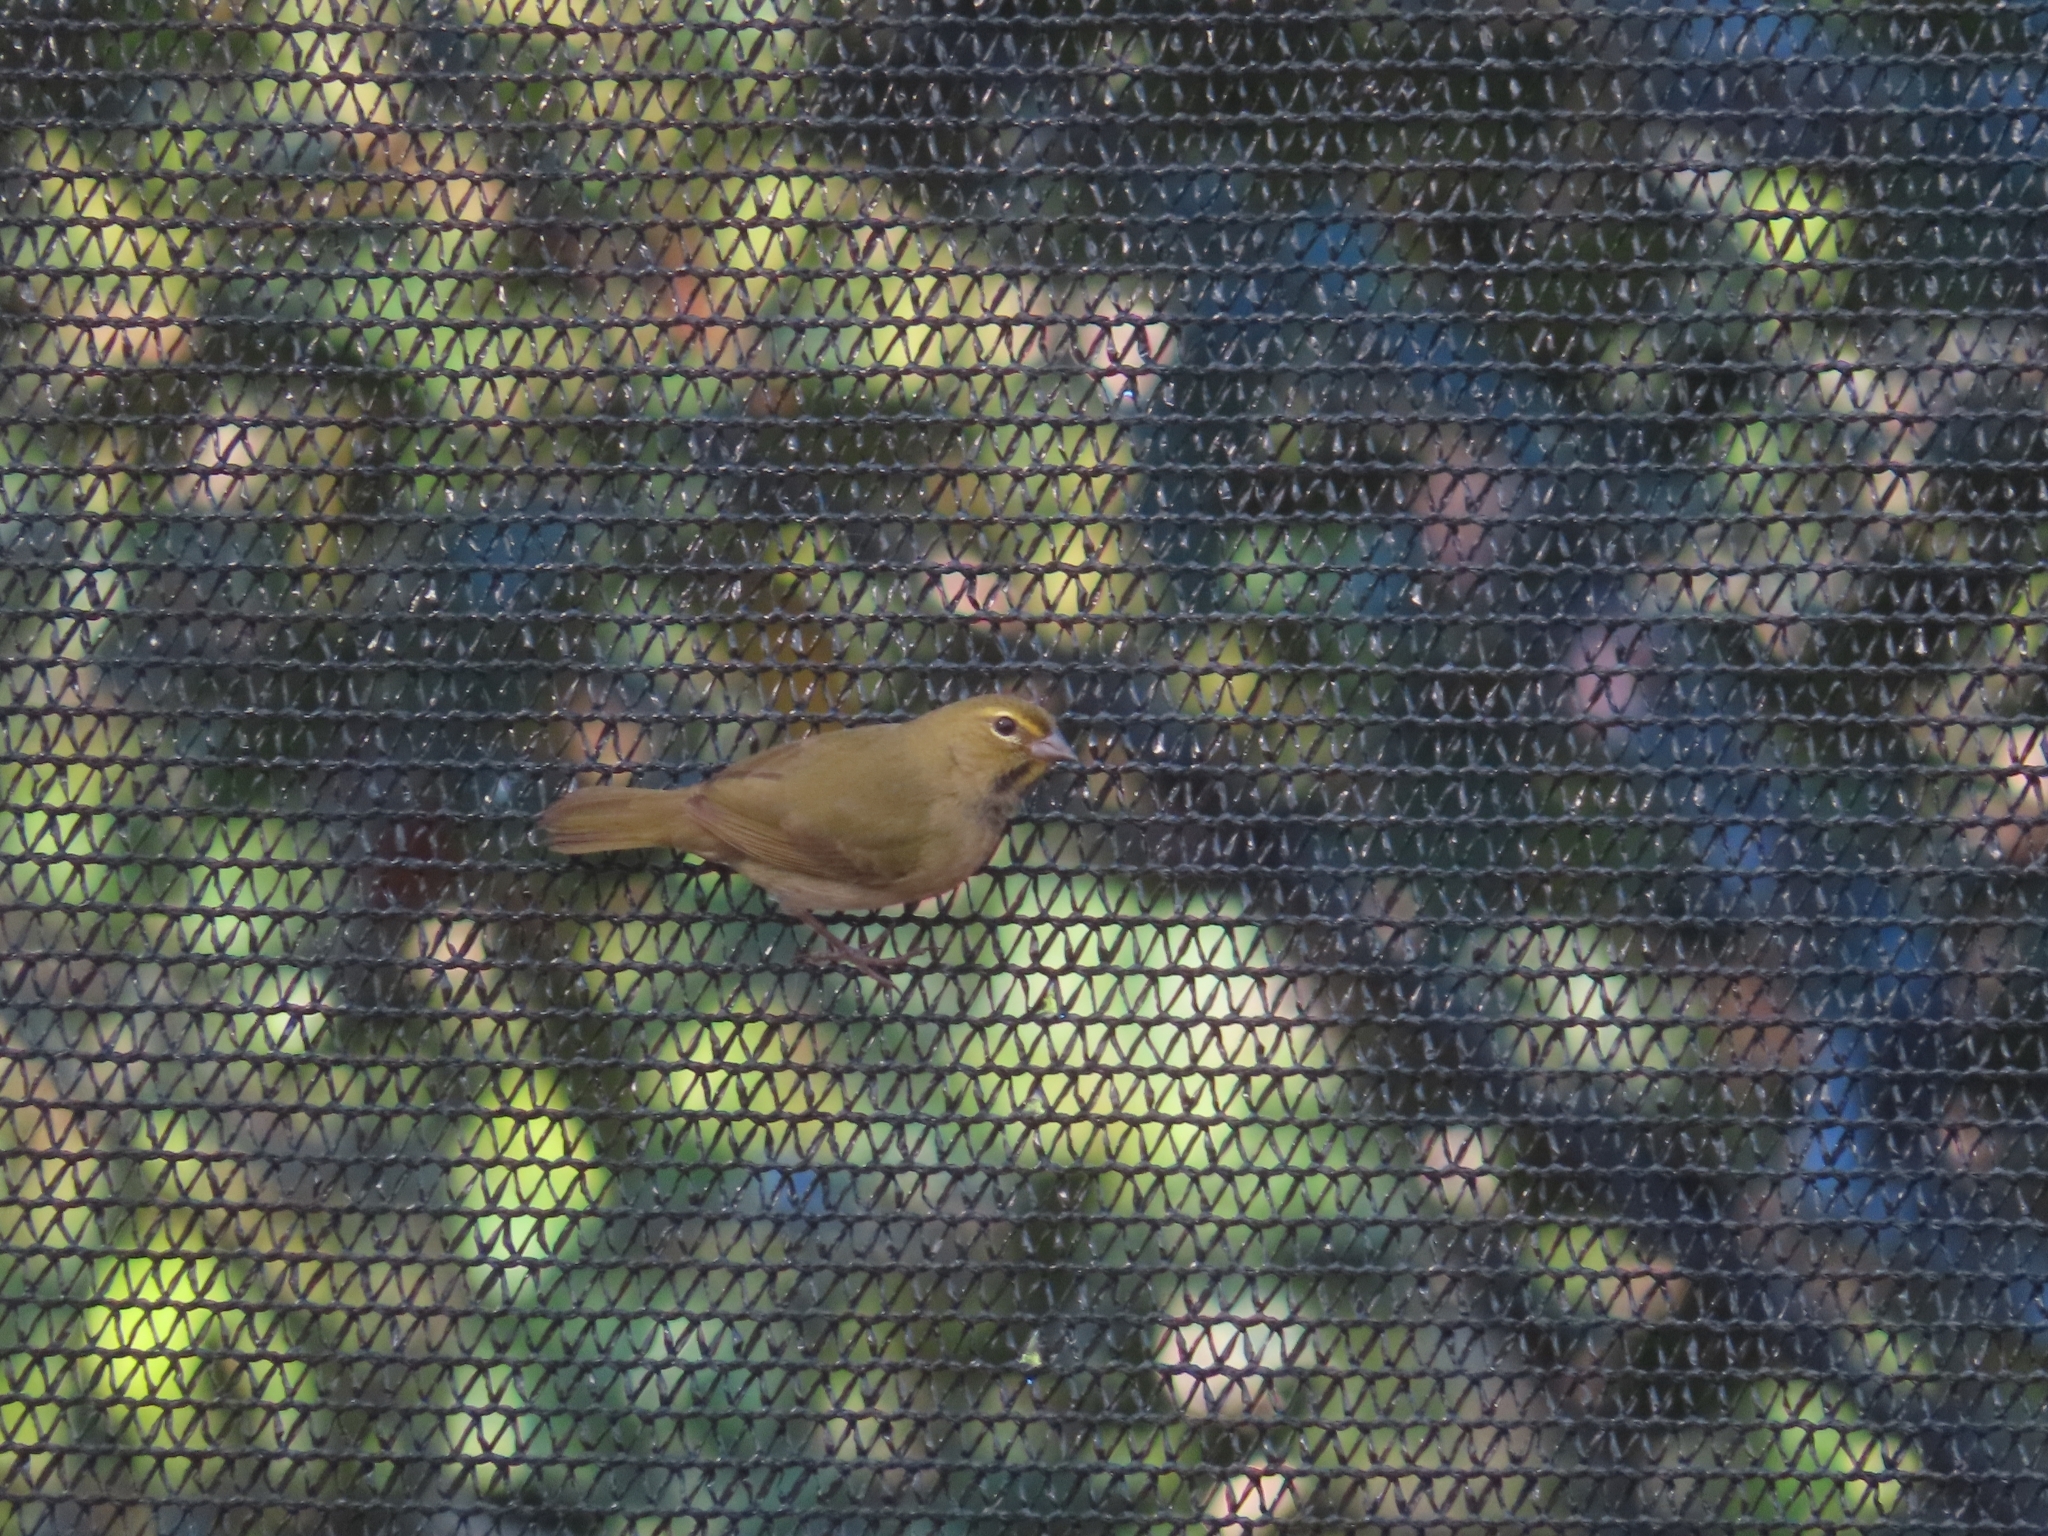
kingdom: Animalia
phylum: Chordata
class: Aves
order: Passeriformes
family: Thraupidae
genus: Tiaris
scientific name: Tiaris olivaceus
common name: Yellow-faced grassquit
